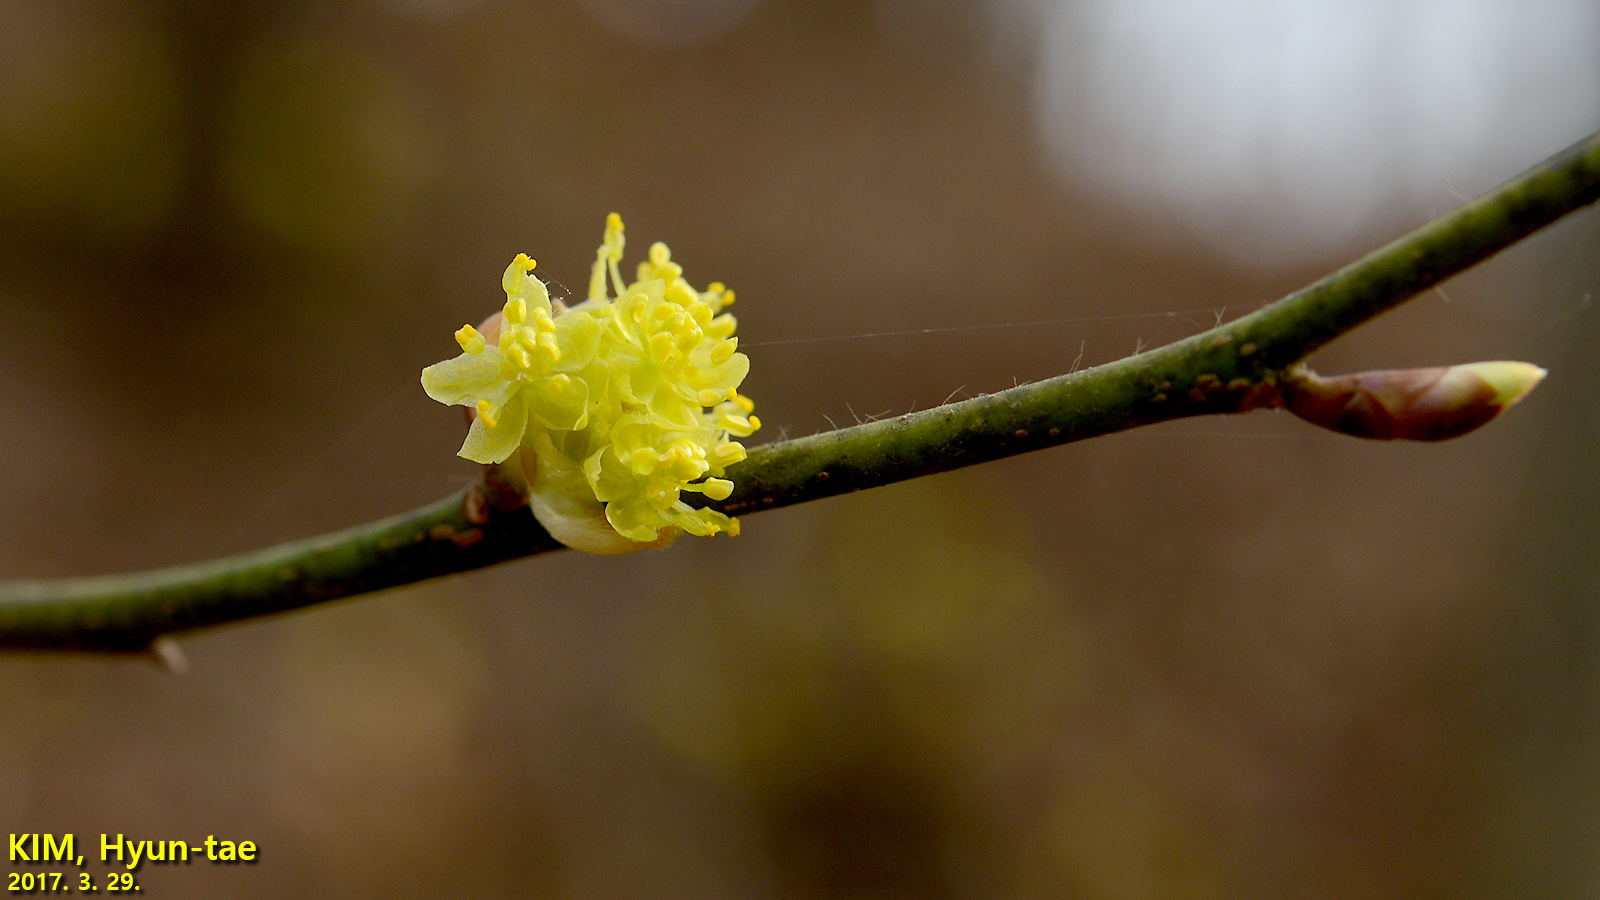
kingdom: Plantae
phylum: Tracheophyta
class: Magnoliopsida
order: Laurales
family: Lauraceae
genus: Lindera
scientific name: Lindera obtusiloba
